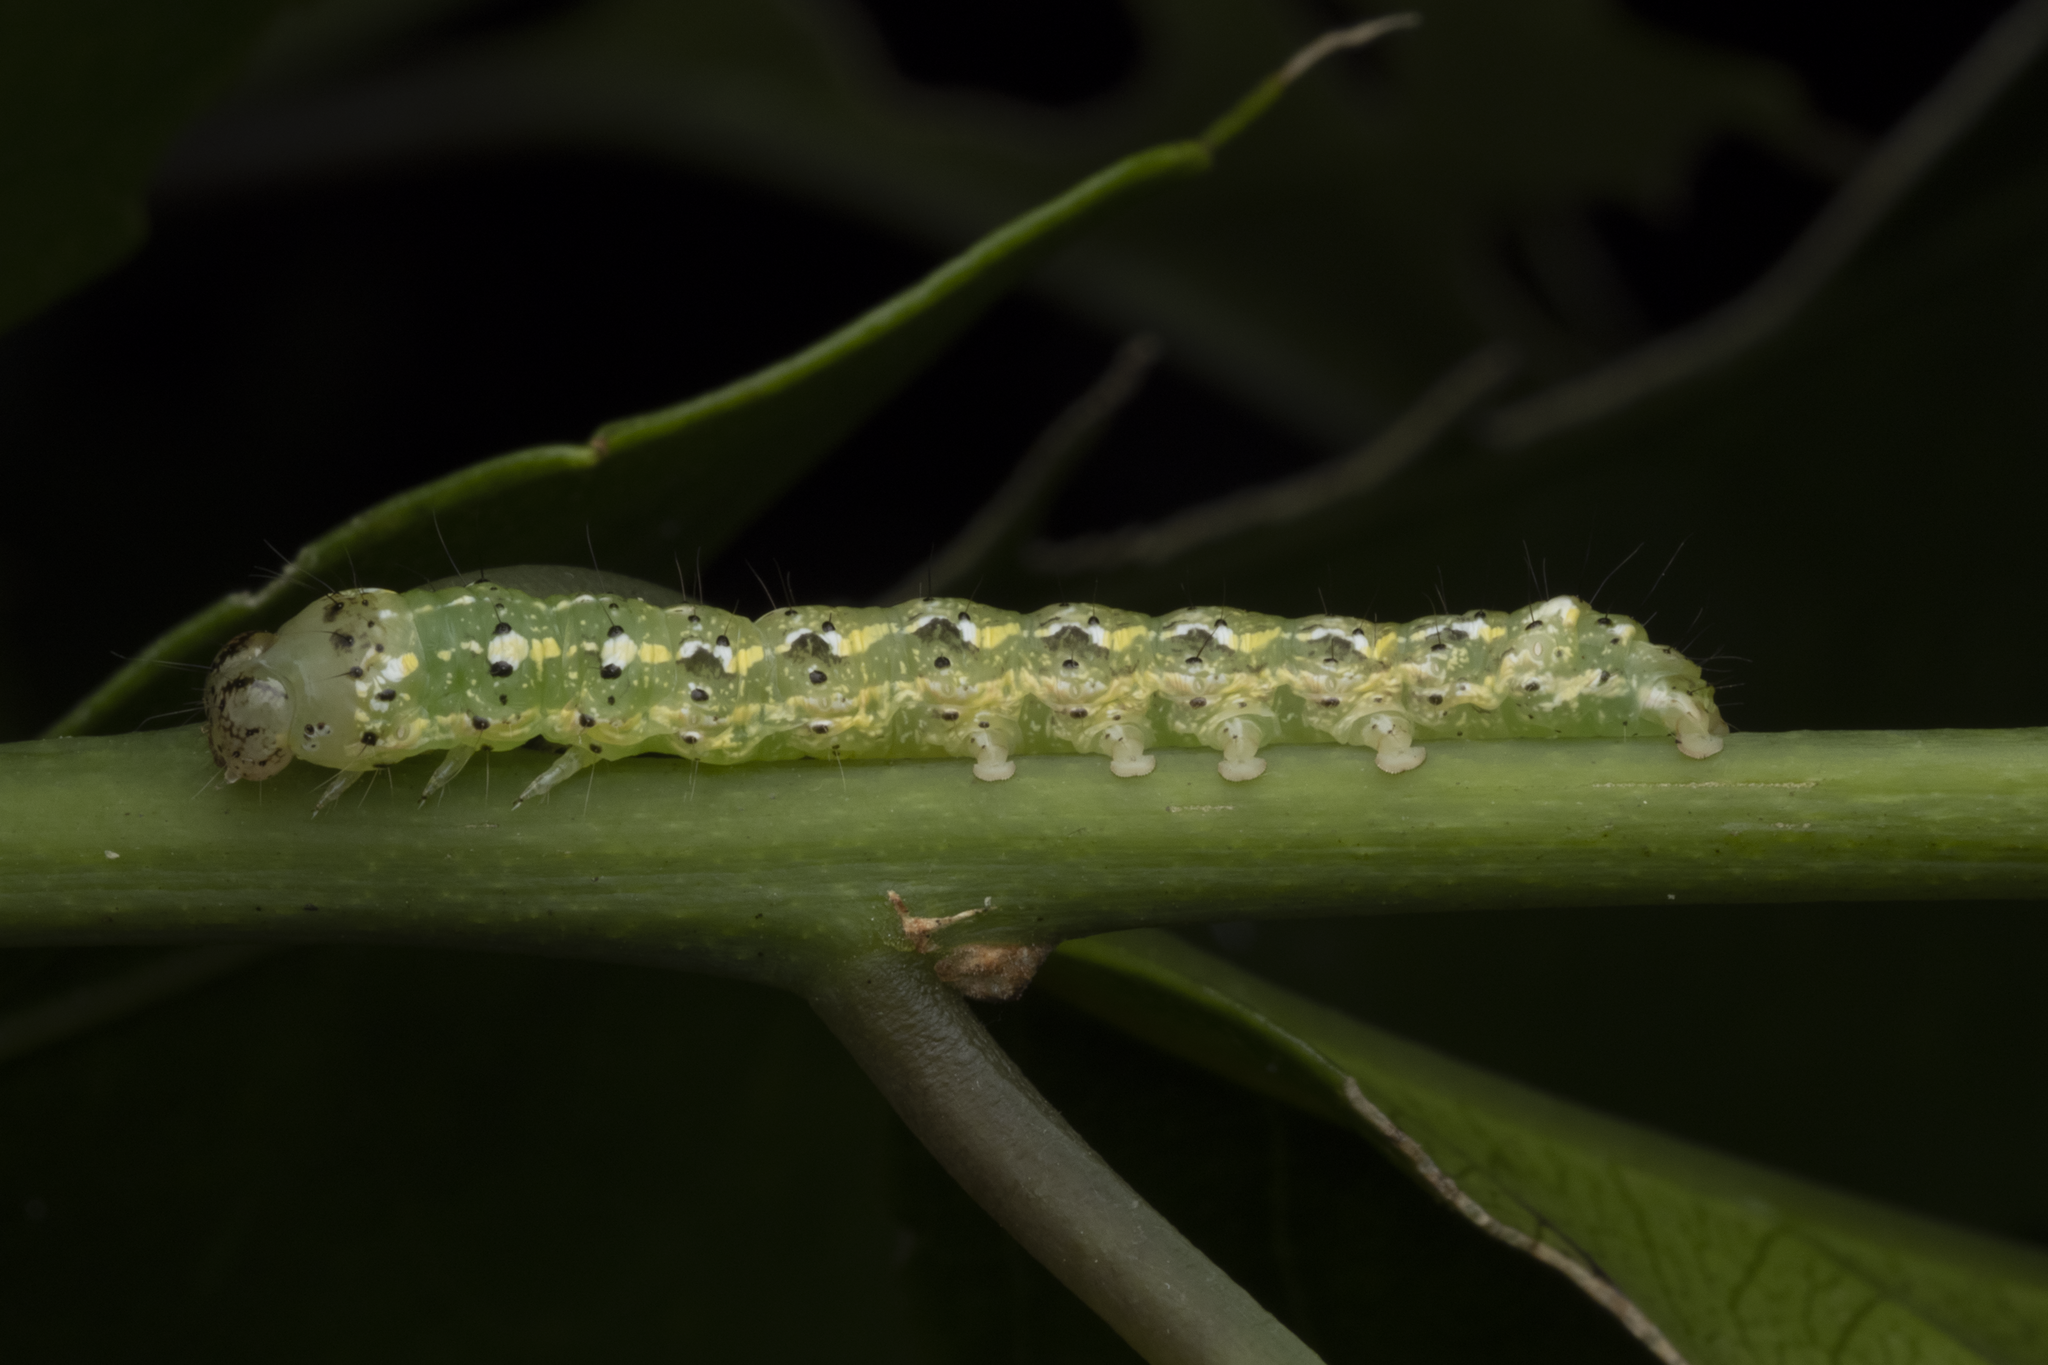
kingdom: Animalia
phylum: Arthropoda
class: Insecta
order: Lepidoptera
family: Noctuidae
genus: Feredayia
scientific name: Feredayia grammosa
